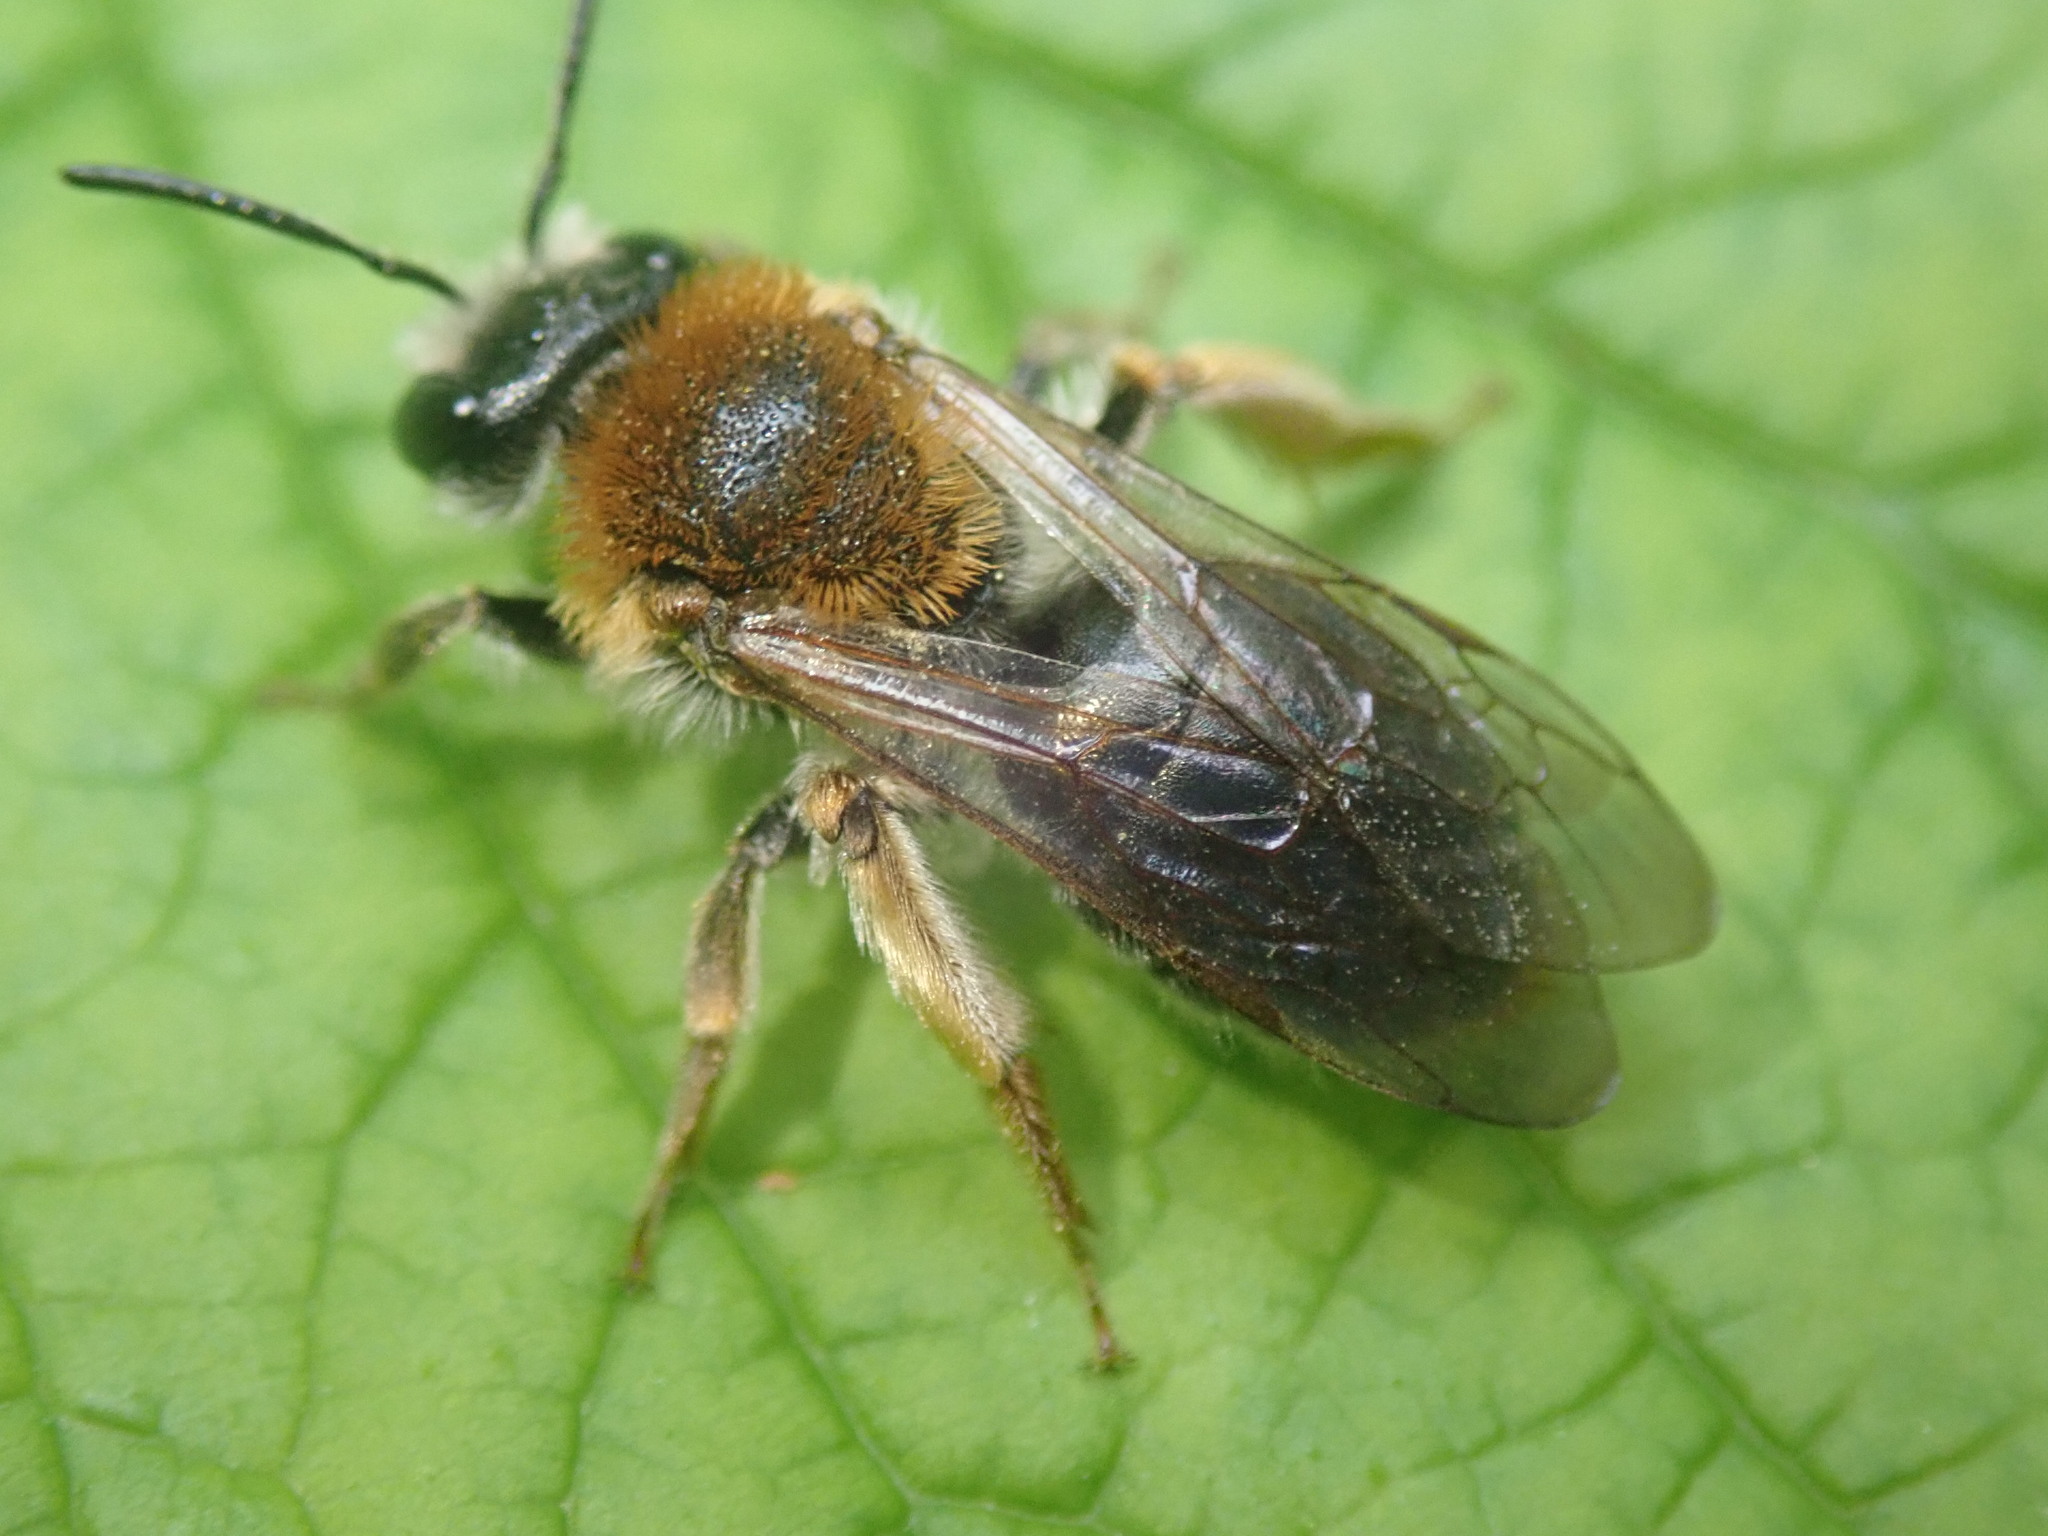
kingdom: Animalia
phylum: Arthropoda
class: Insecta
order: Hymenoptera
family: Andrenidae
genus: Andrena
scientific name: Andrena haemorrhoa
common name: Early mining bee
